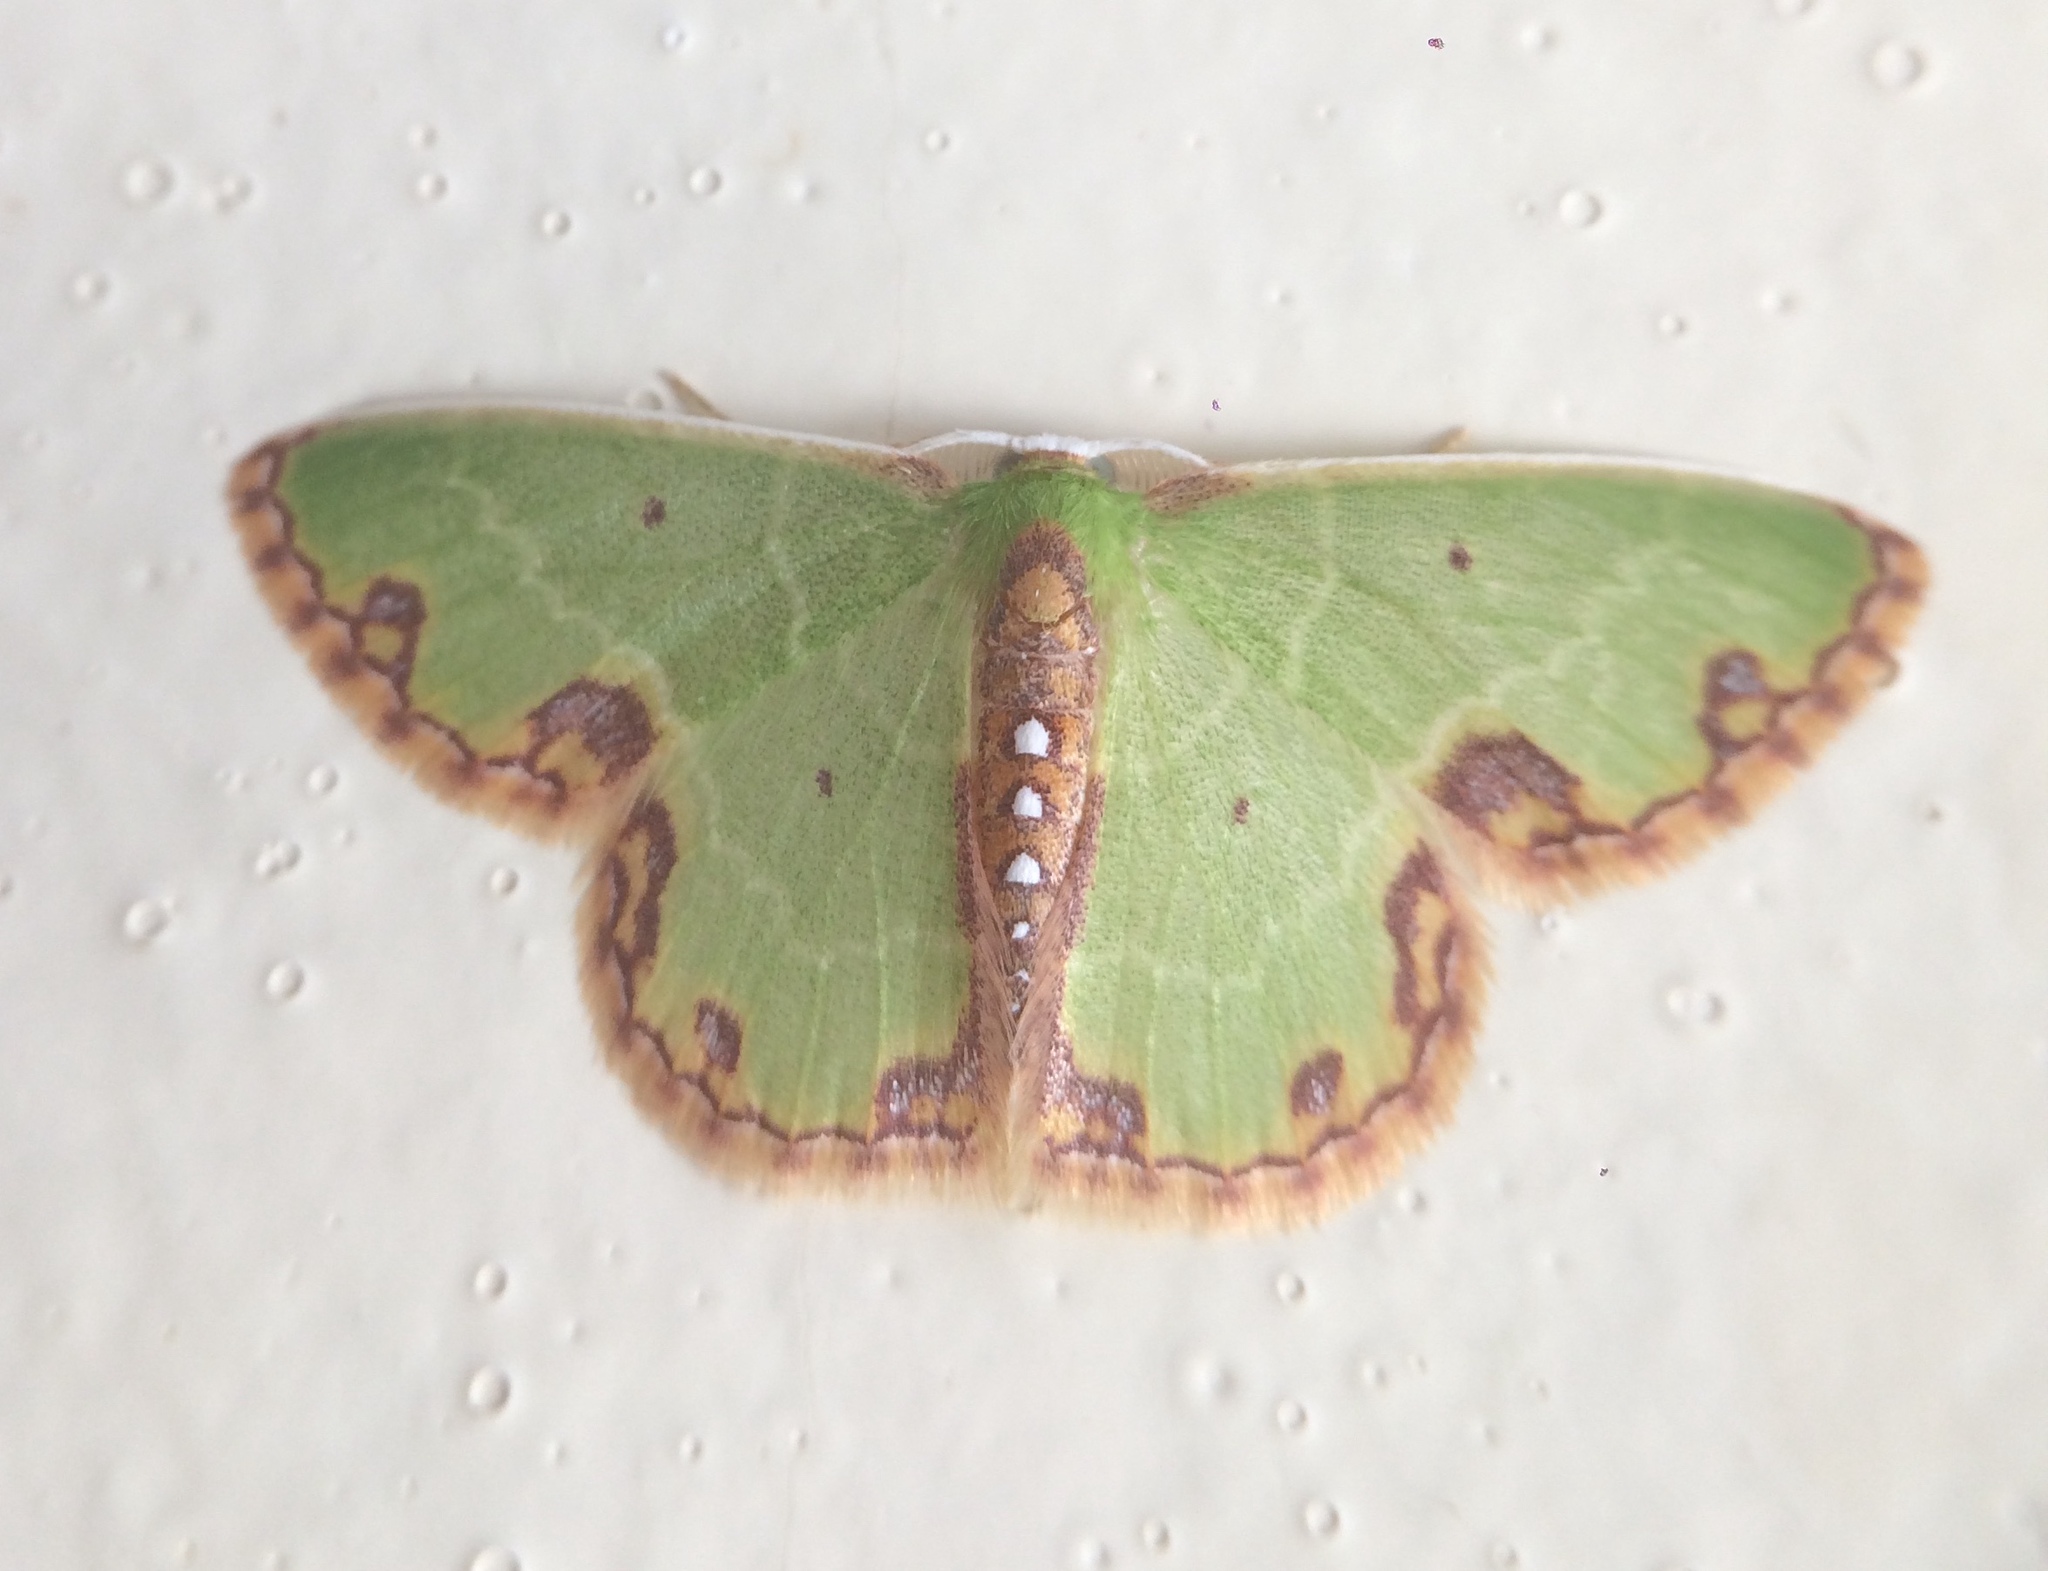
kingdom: Animalia
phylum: Arthropoda
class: Insecta
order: Lepidoptera
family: Geometridae
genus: Synchlora
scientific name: Synchlora gerularia
